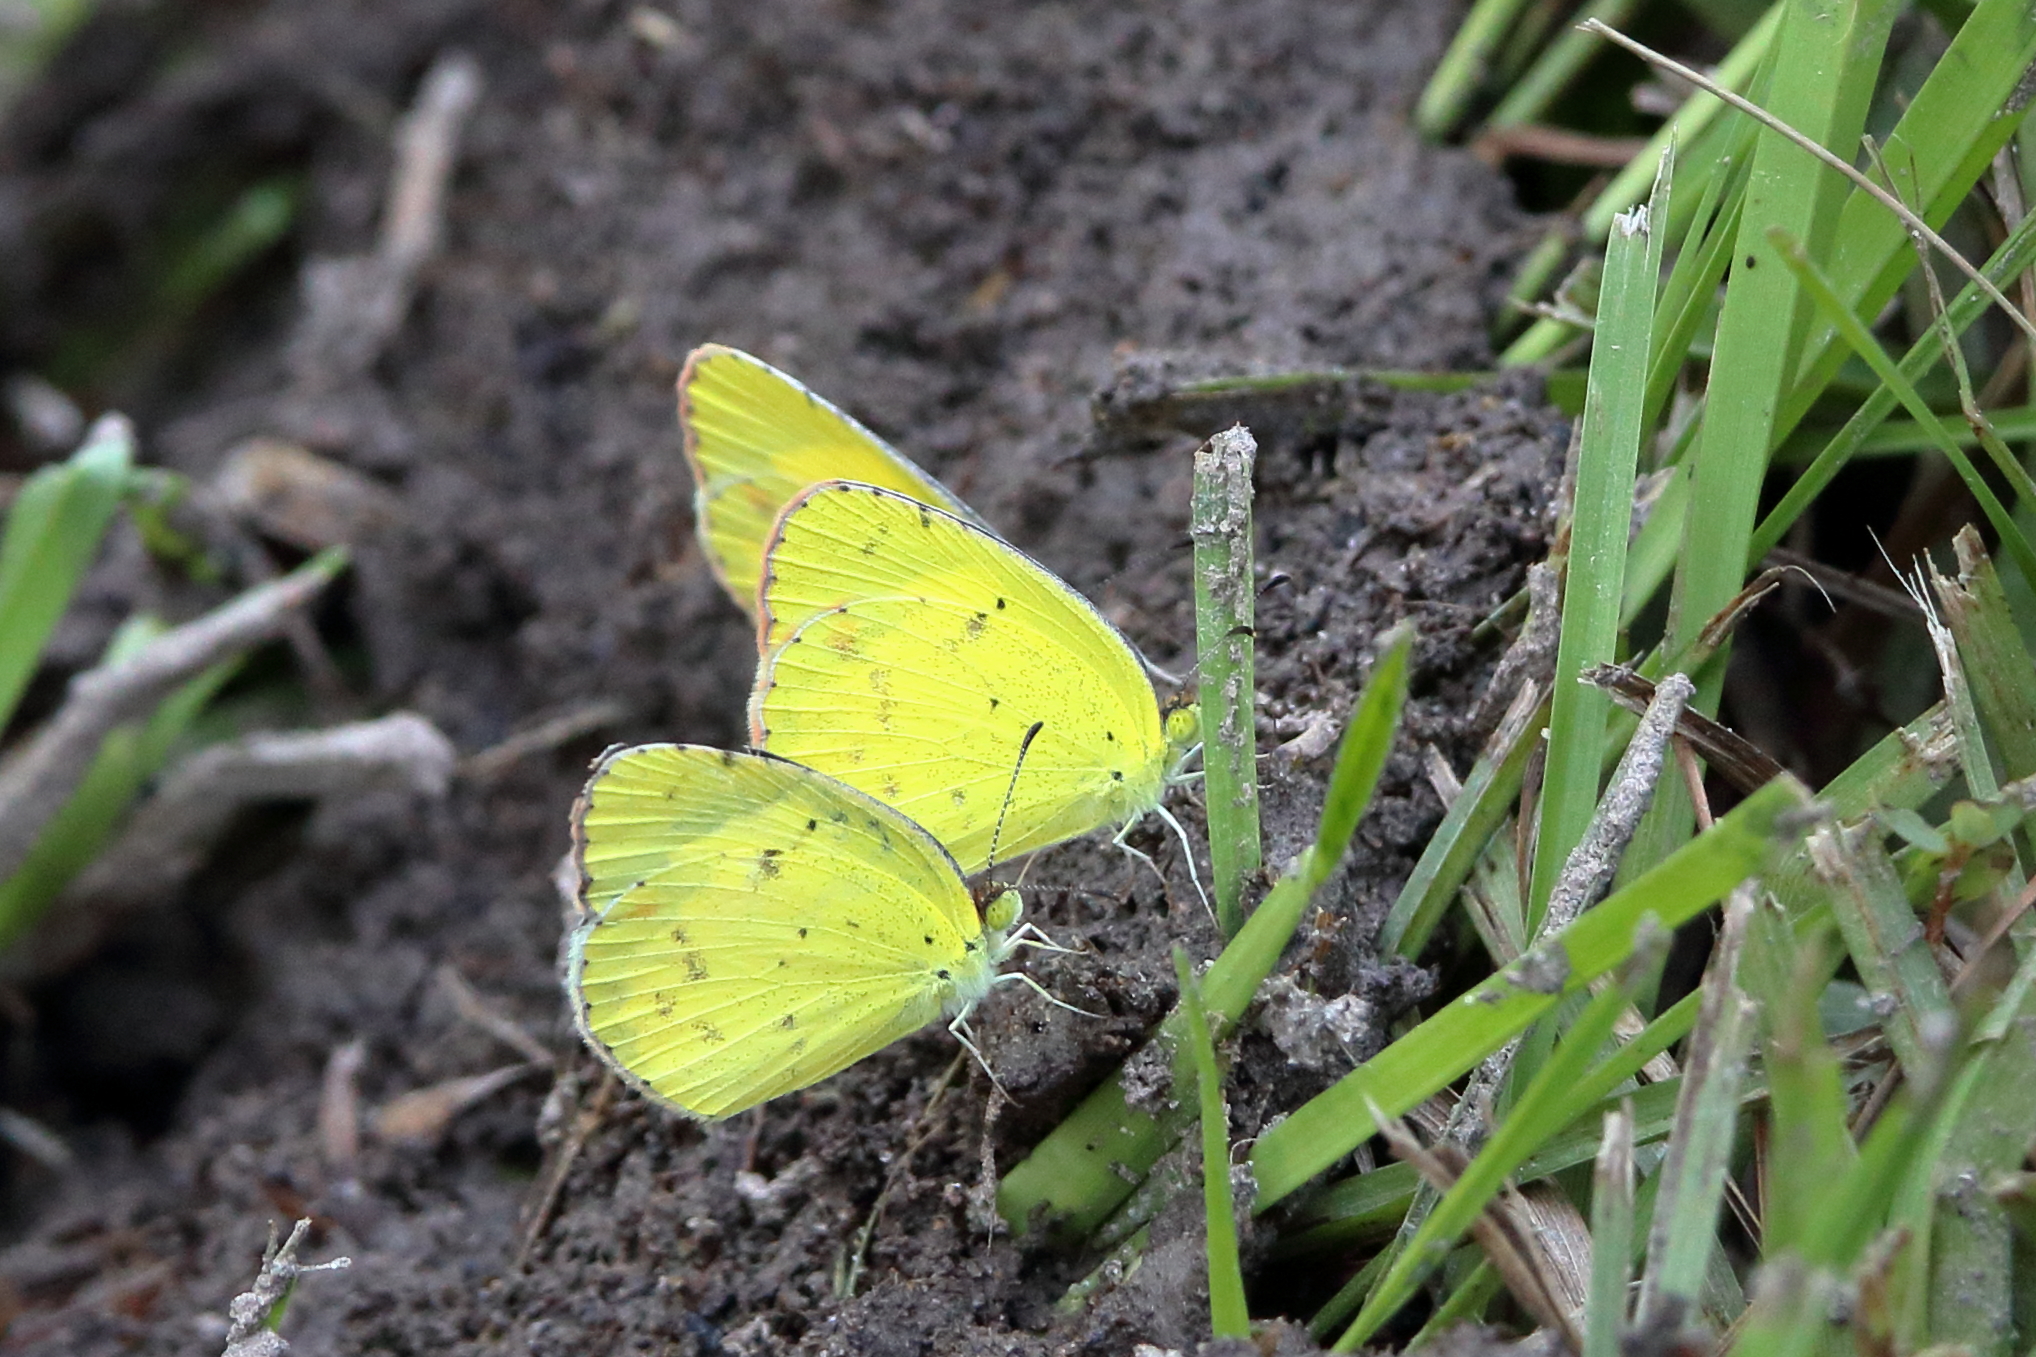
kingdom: Animalia
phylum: Arthropoda
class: Insecta
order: Lepidoptera
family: Pieridae
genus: Pyrisitia
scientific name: Pyrisitia lisa
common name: Little yellow
